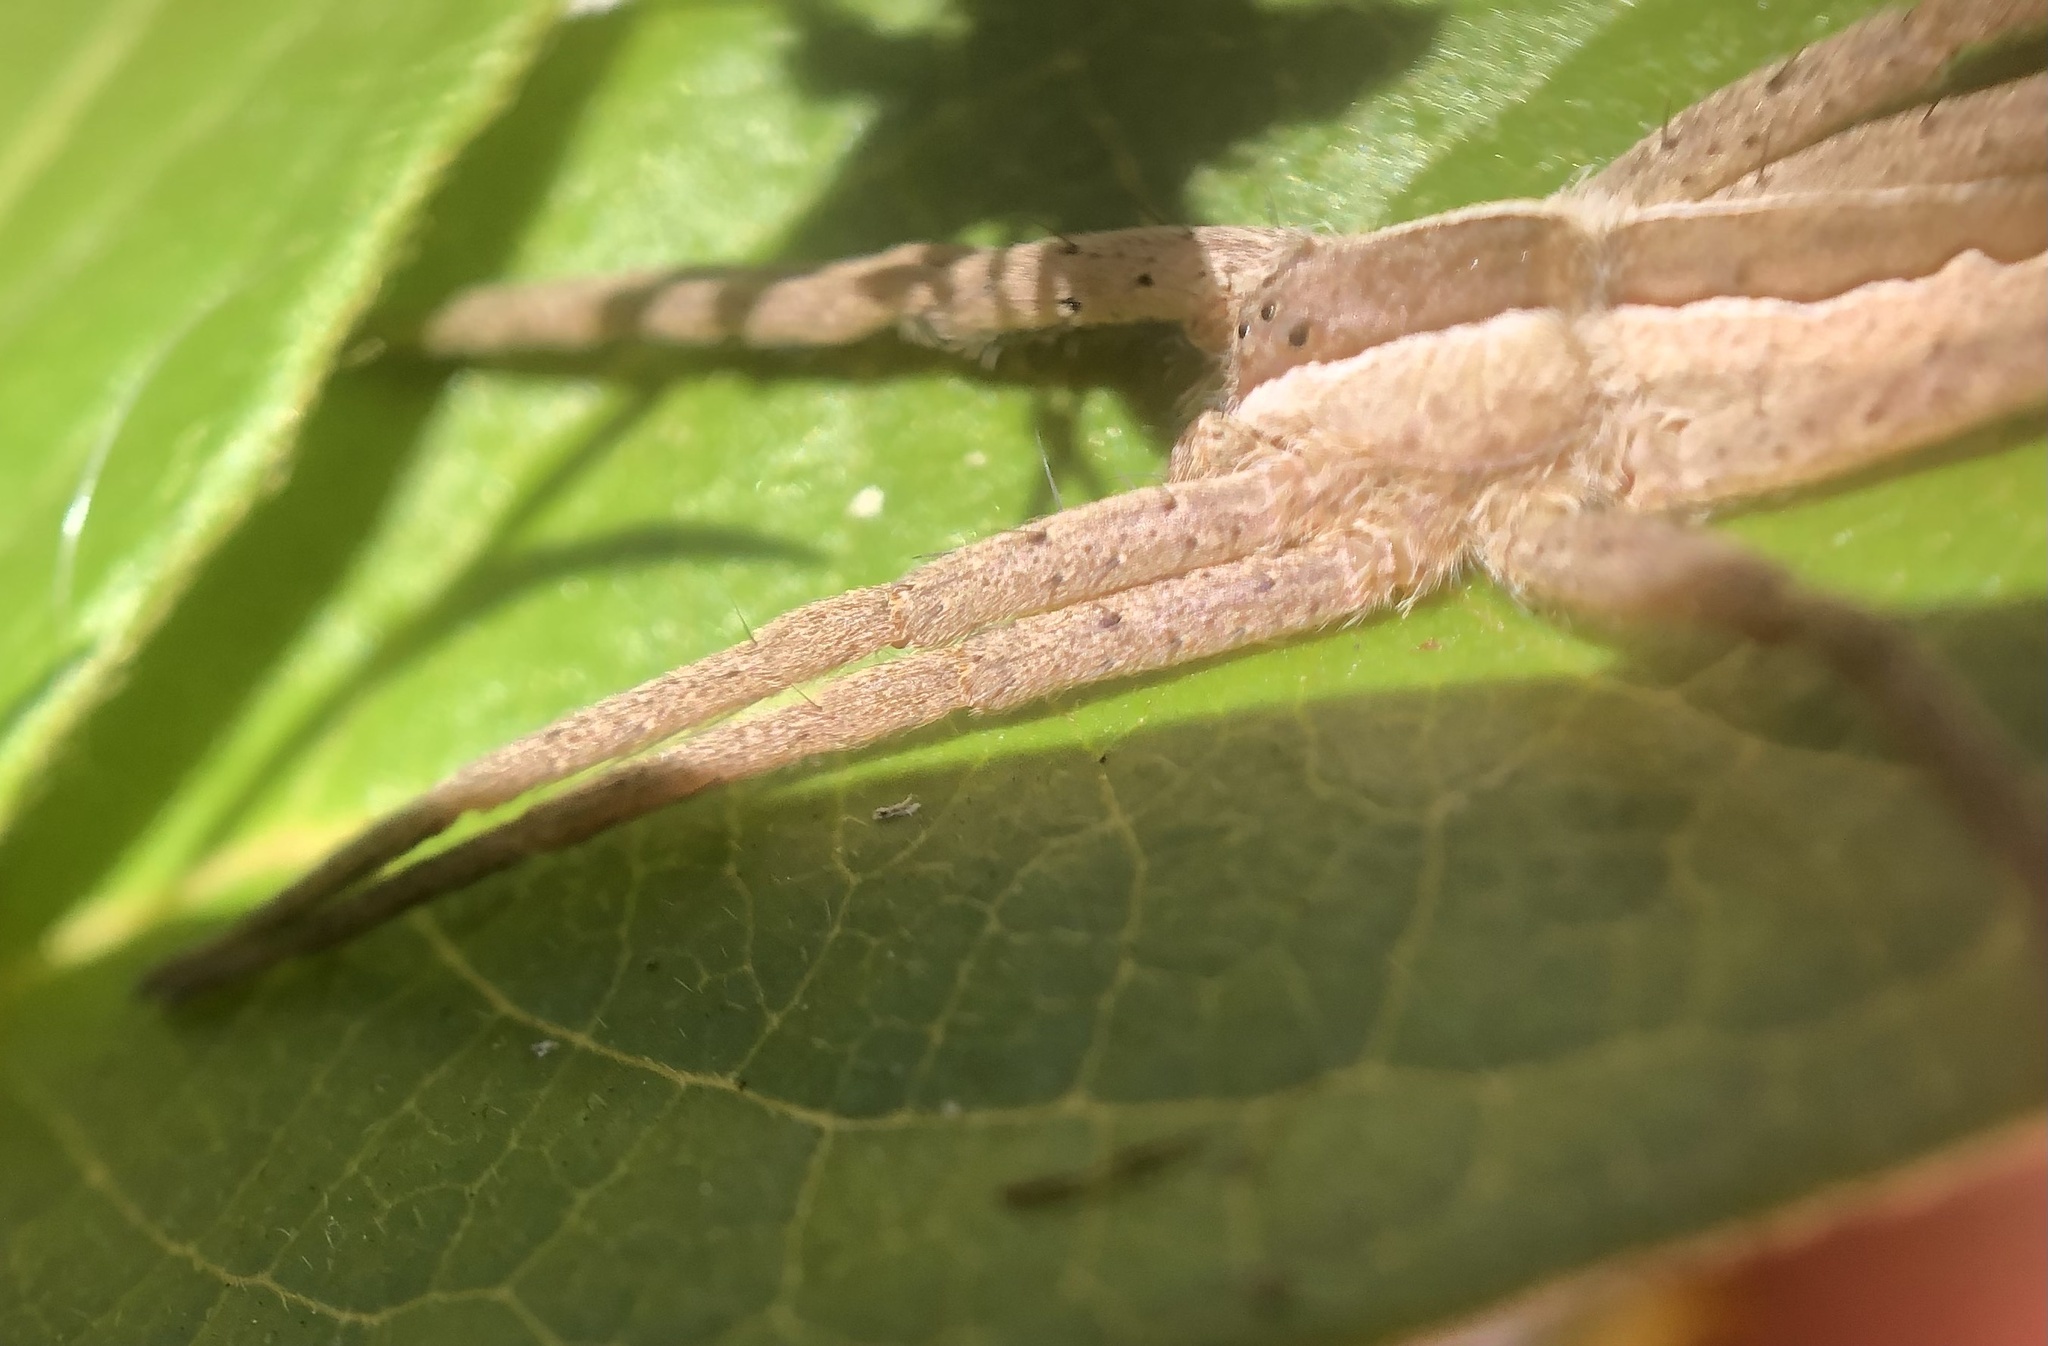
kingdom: Animalia
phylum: Arthropoda
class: Arachnida
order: Araneae
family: Pisauridae
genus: Pisaurina
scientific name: Pisaurina mira
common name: American nursery web spider
